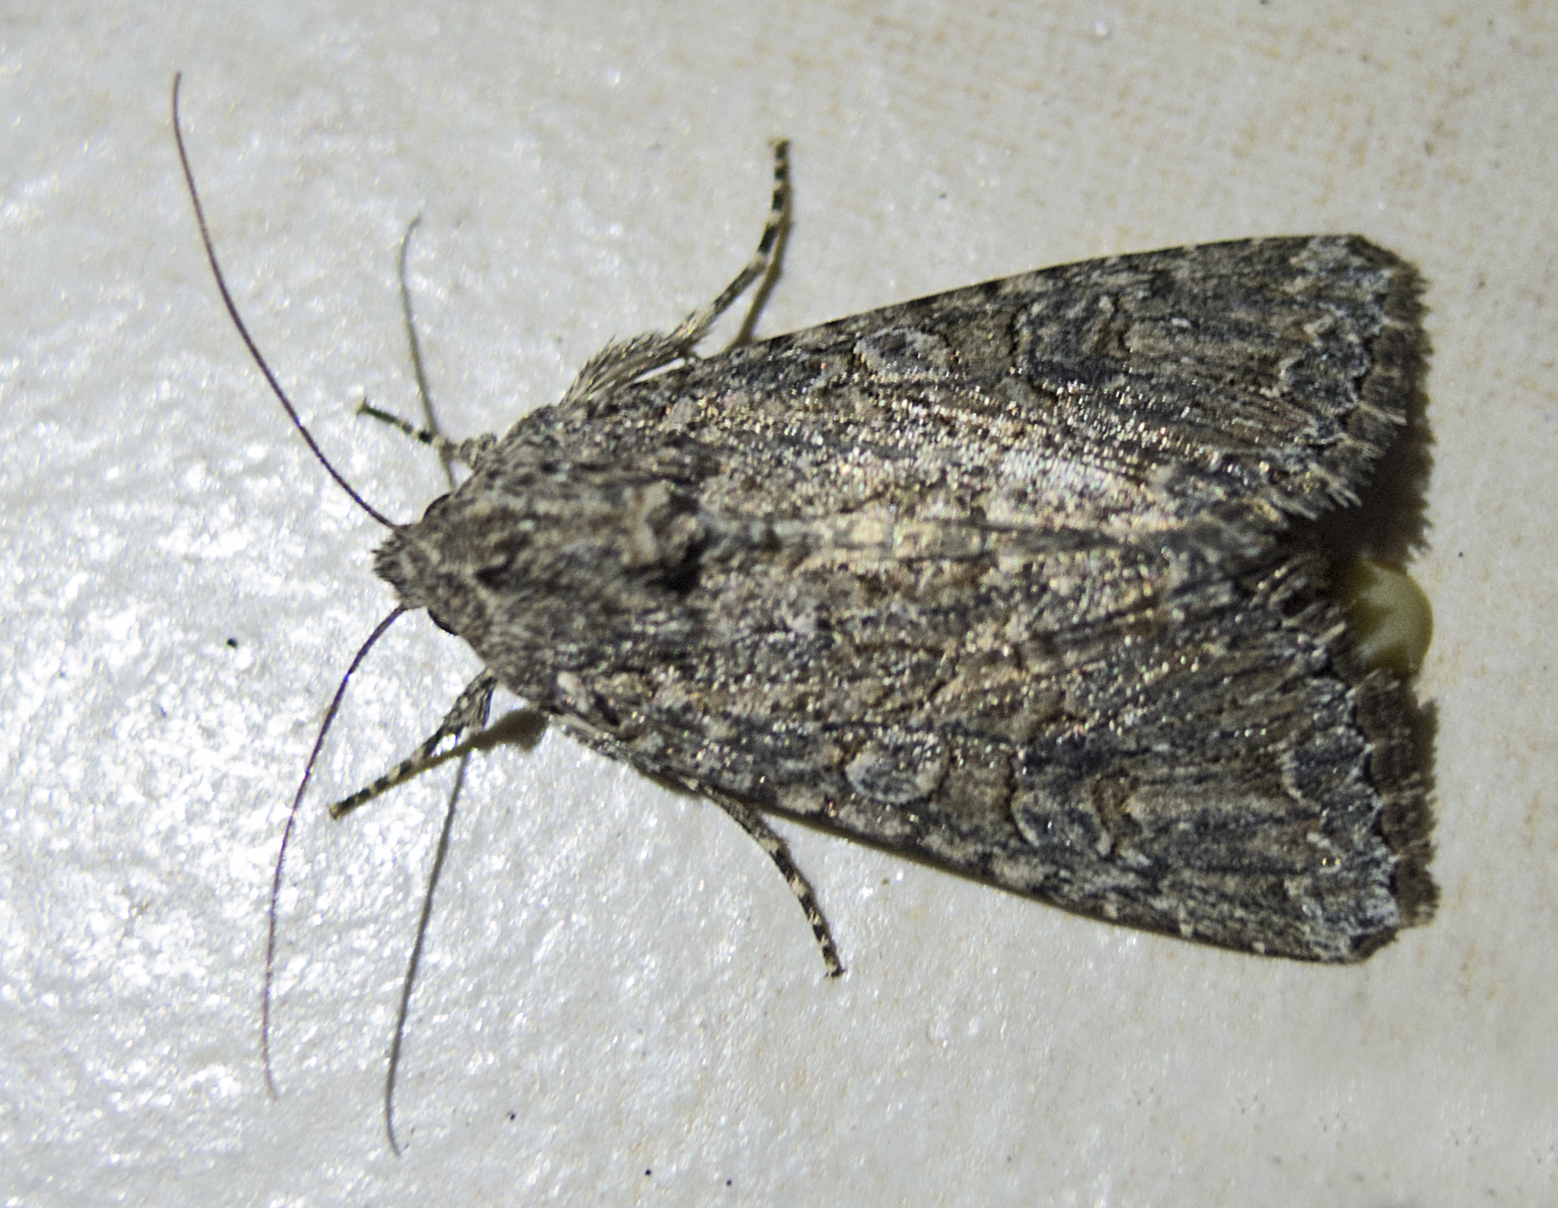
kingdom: Animalia
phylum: Arthropoda
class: Insecta
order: Lepidoptera
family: Noctuidae
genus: Anarta
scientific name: Anarta trifolii
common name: Clover cutworm moth
